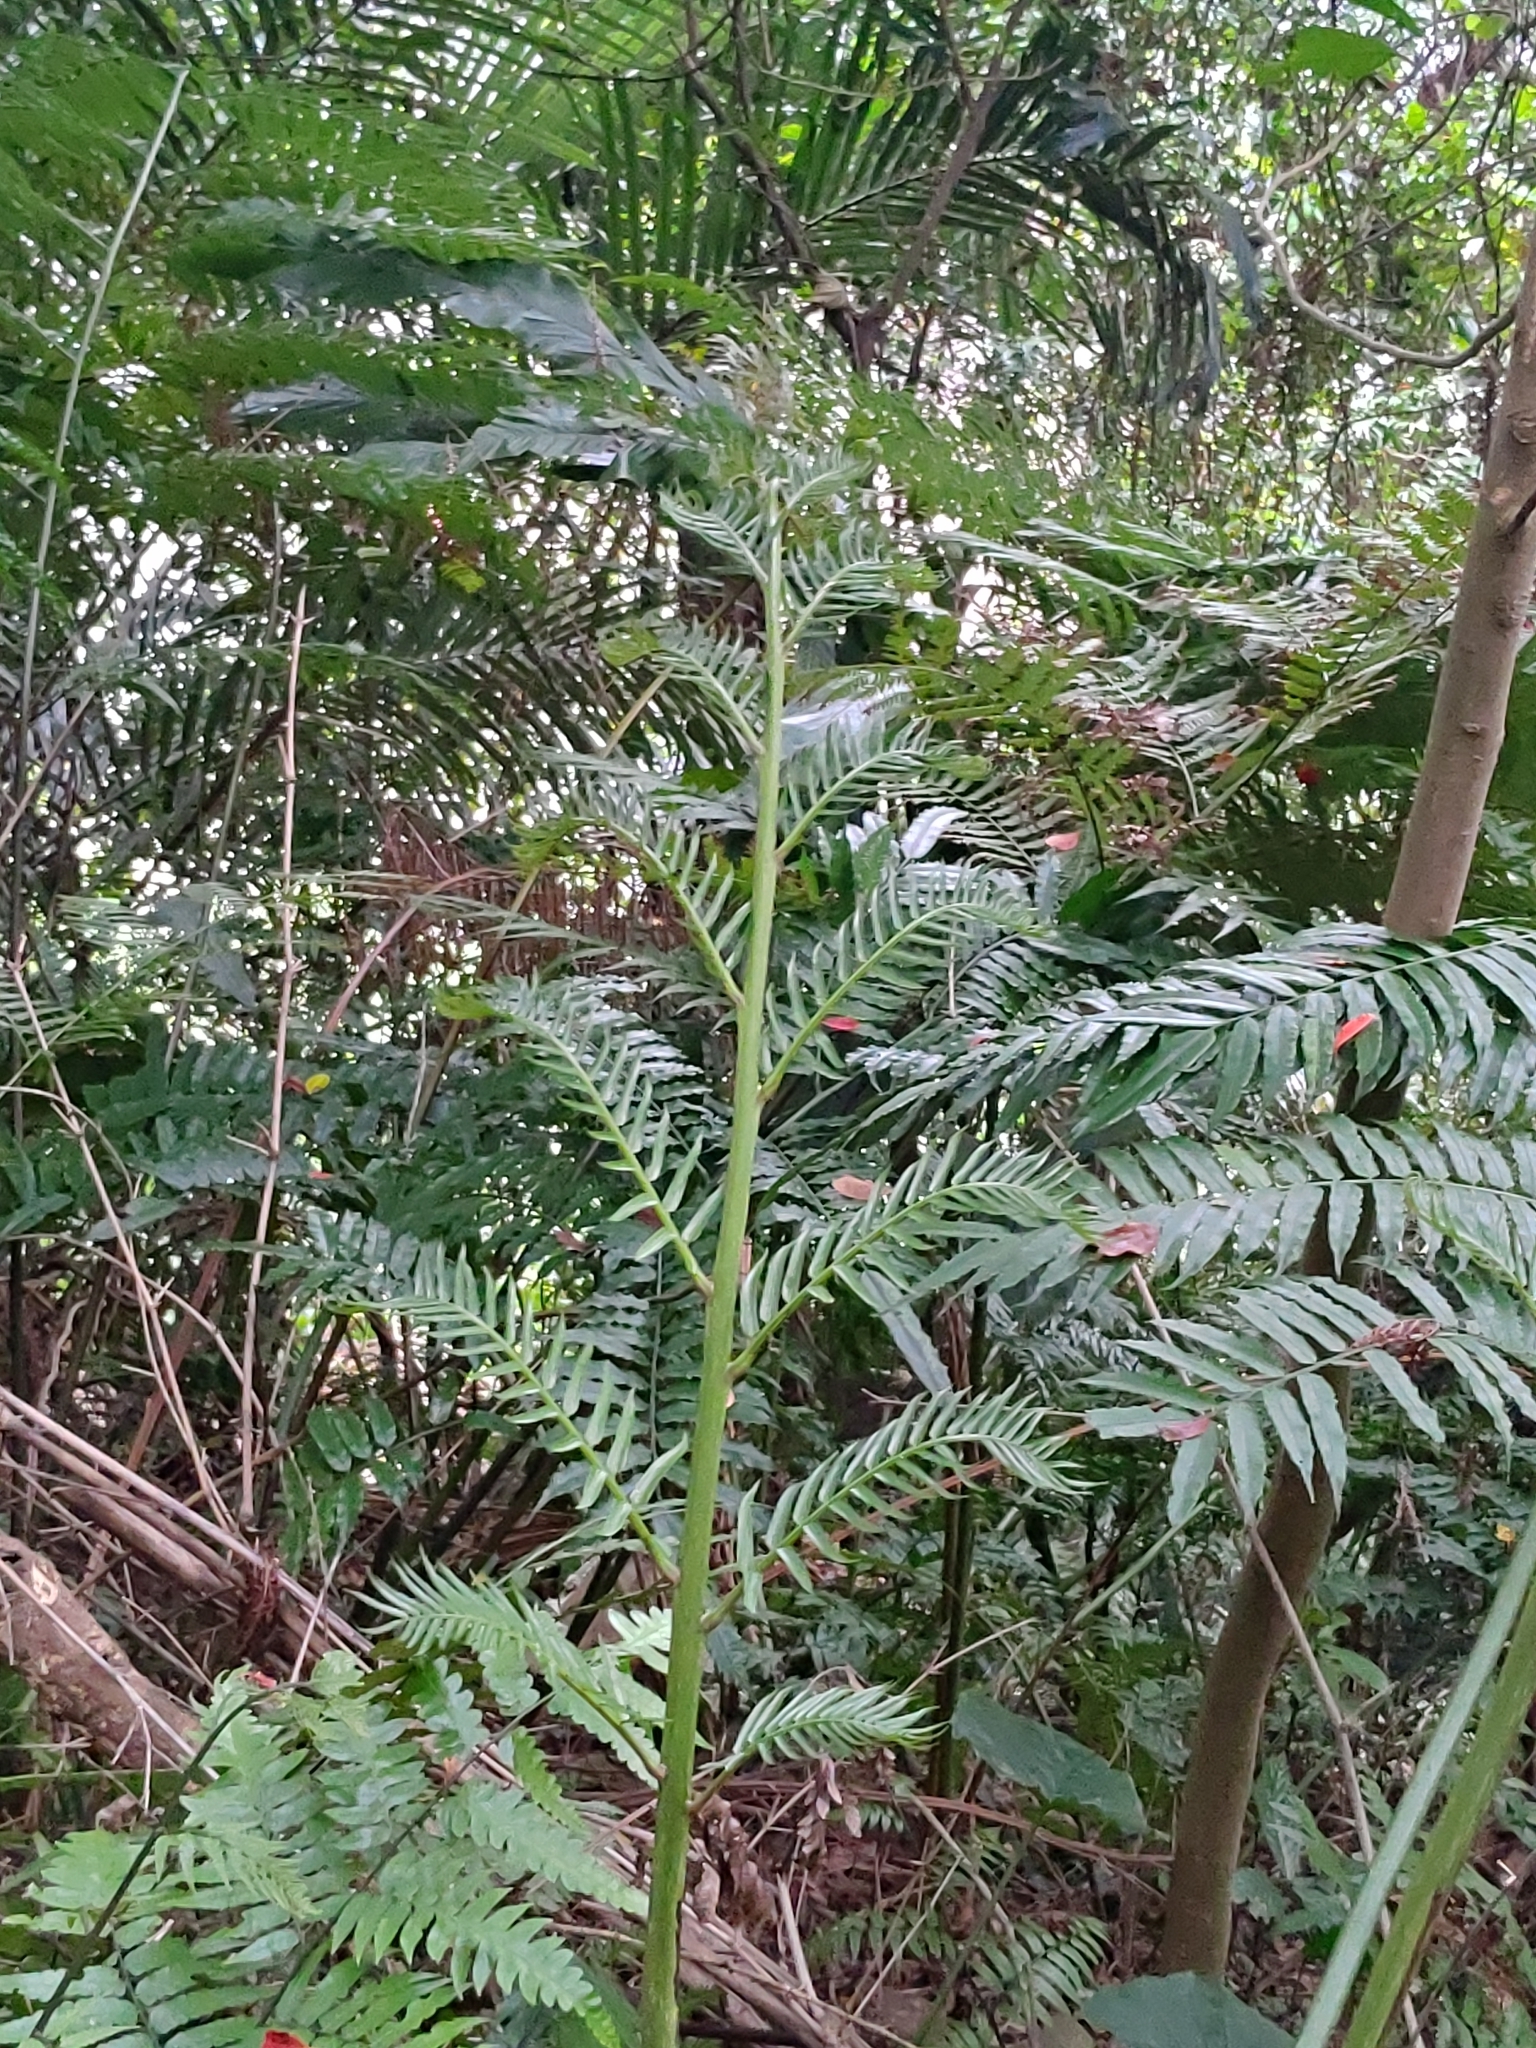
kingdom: Plantae
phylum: Tracheophyta
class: Polypodiopsida
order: Marattiales
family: Marattiaceae
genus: Angiopteris
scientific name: Angiopteris lygodiifolia
